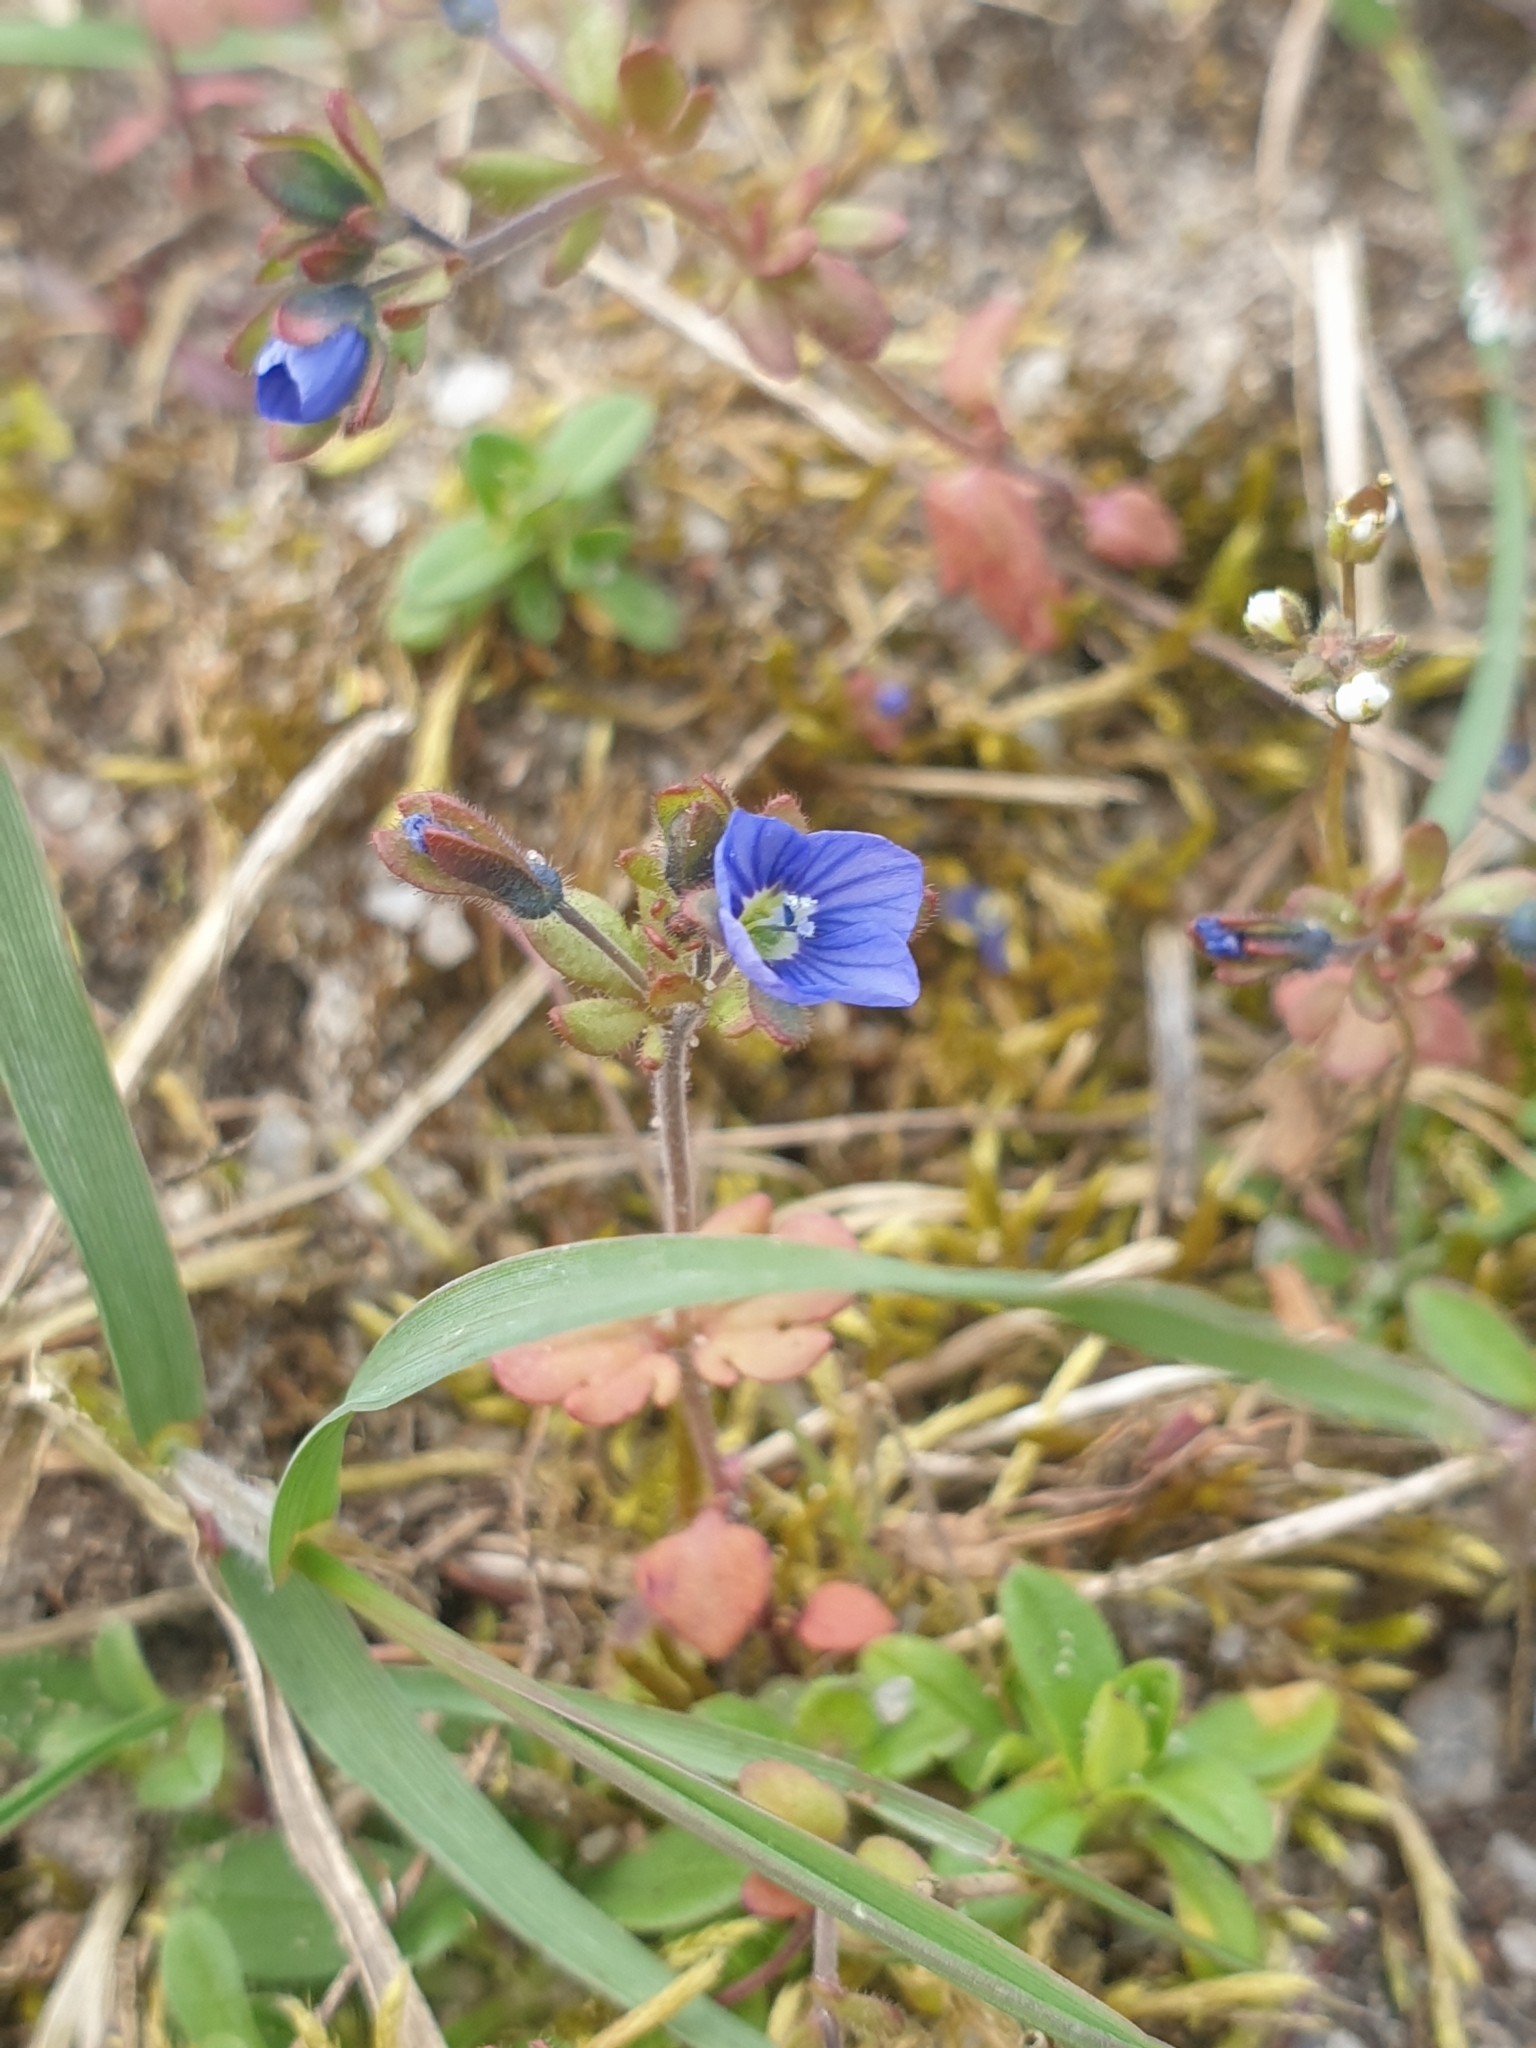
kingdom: Plantae
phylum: Tracheophyta
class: Magnoliopsida
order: Lamiales
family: Plantaginaceae
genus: Veronica
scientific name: Veronica triphyllos
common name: Fingered speedwell
